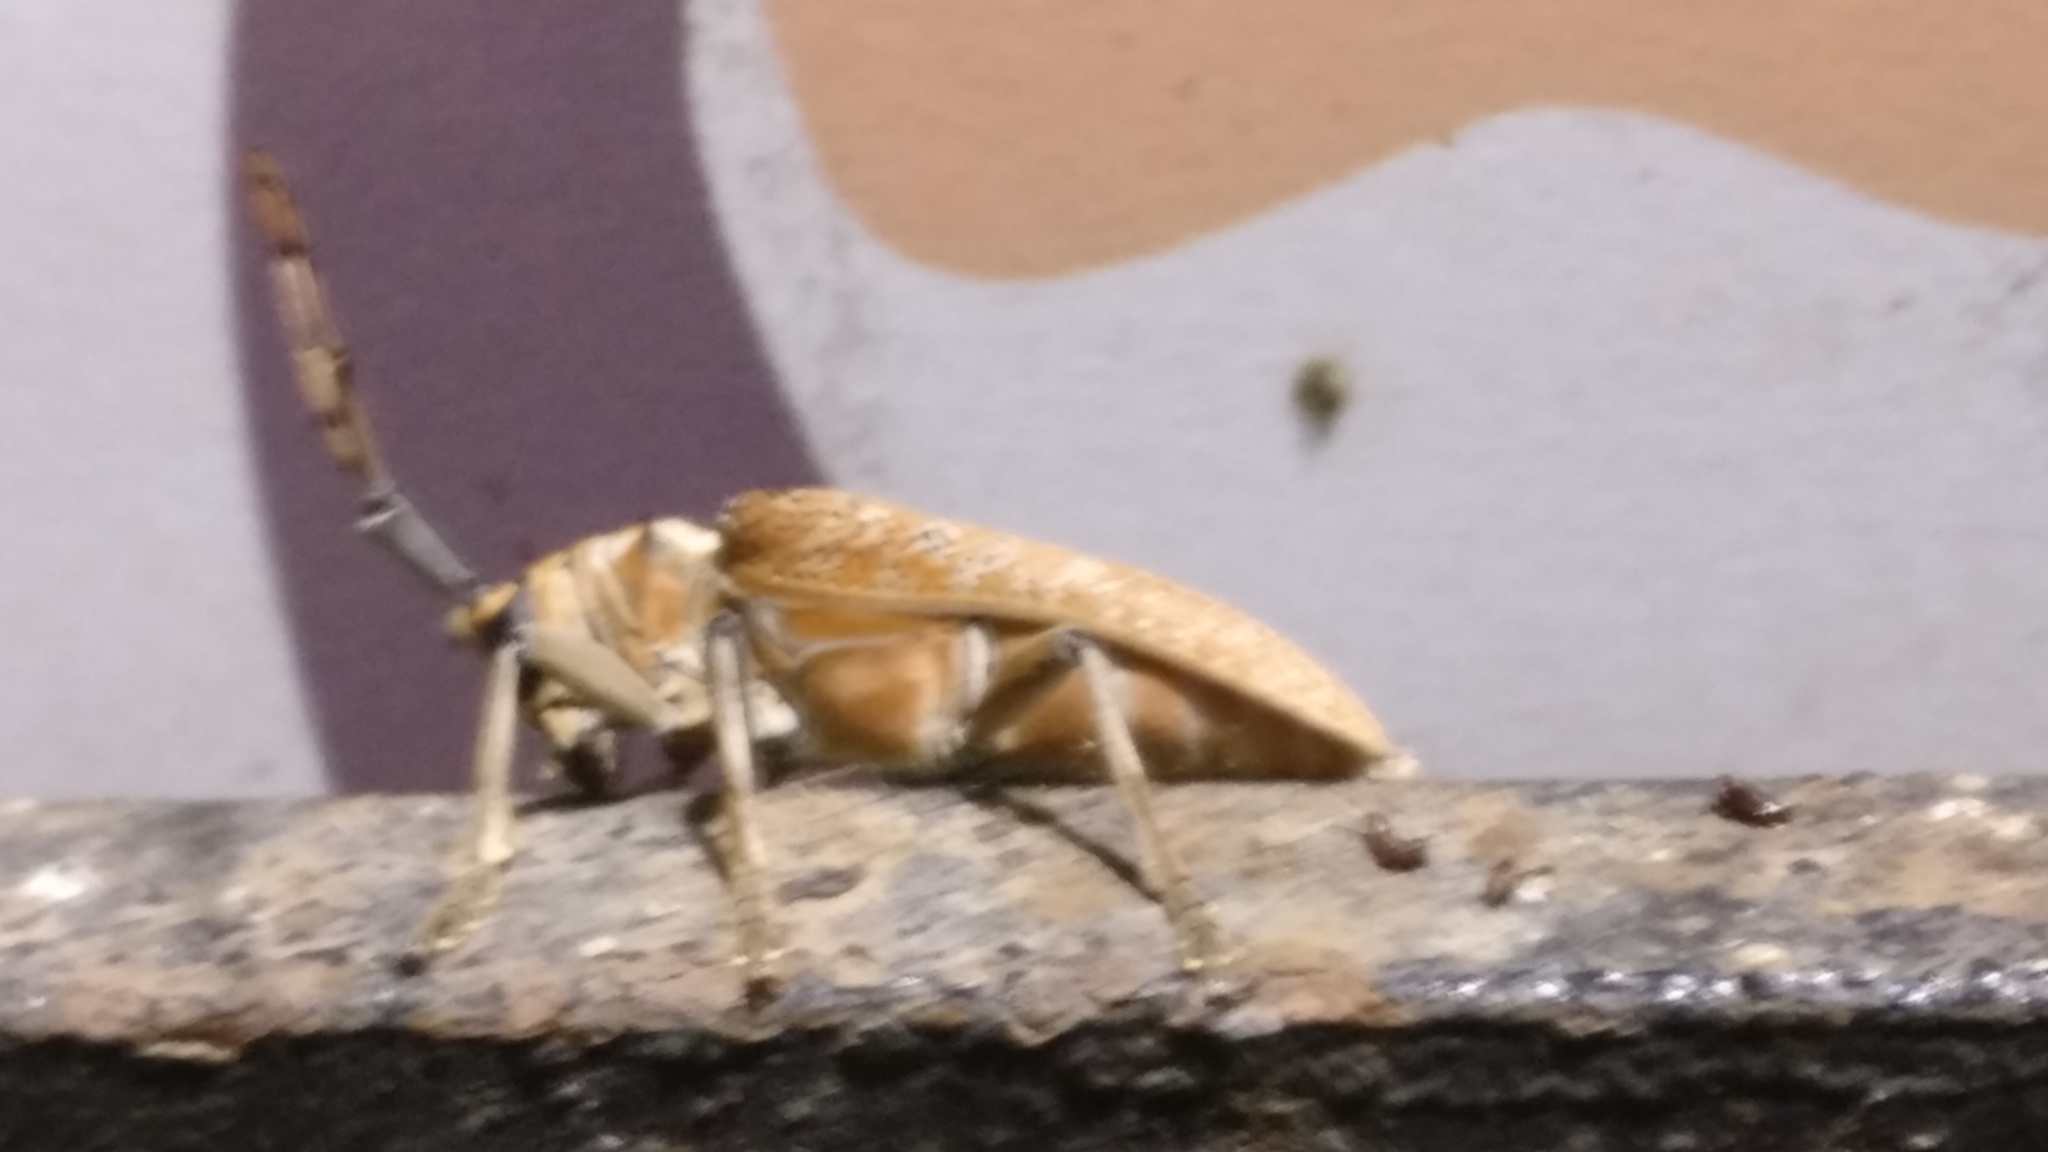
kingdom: Animalia
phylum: Arthropoda
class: Insecta
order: Coleoptera
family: Cerambycidae
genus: Cerosterna
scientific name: Cerosterna scabrator
